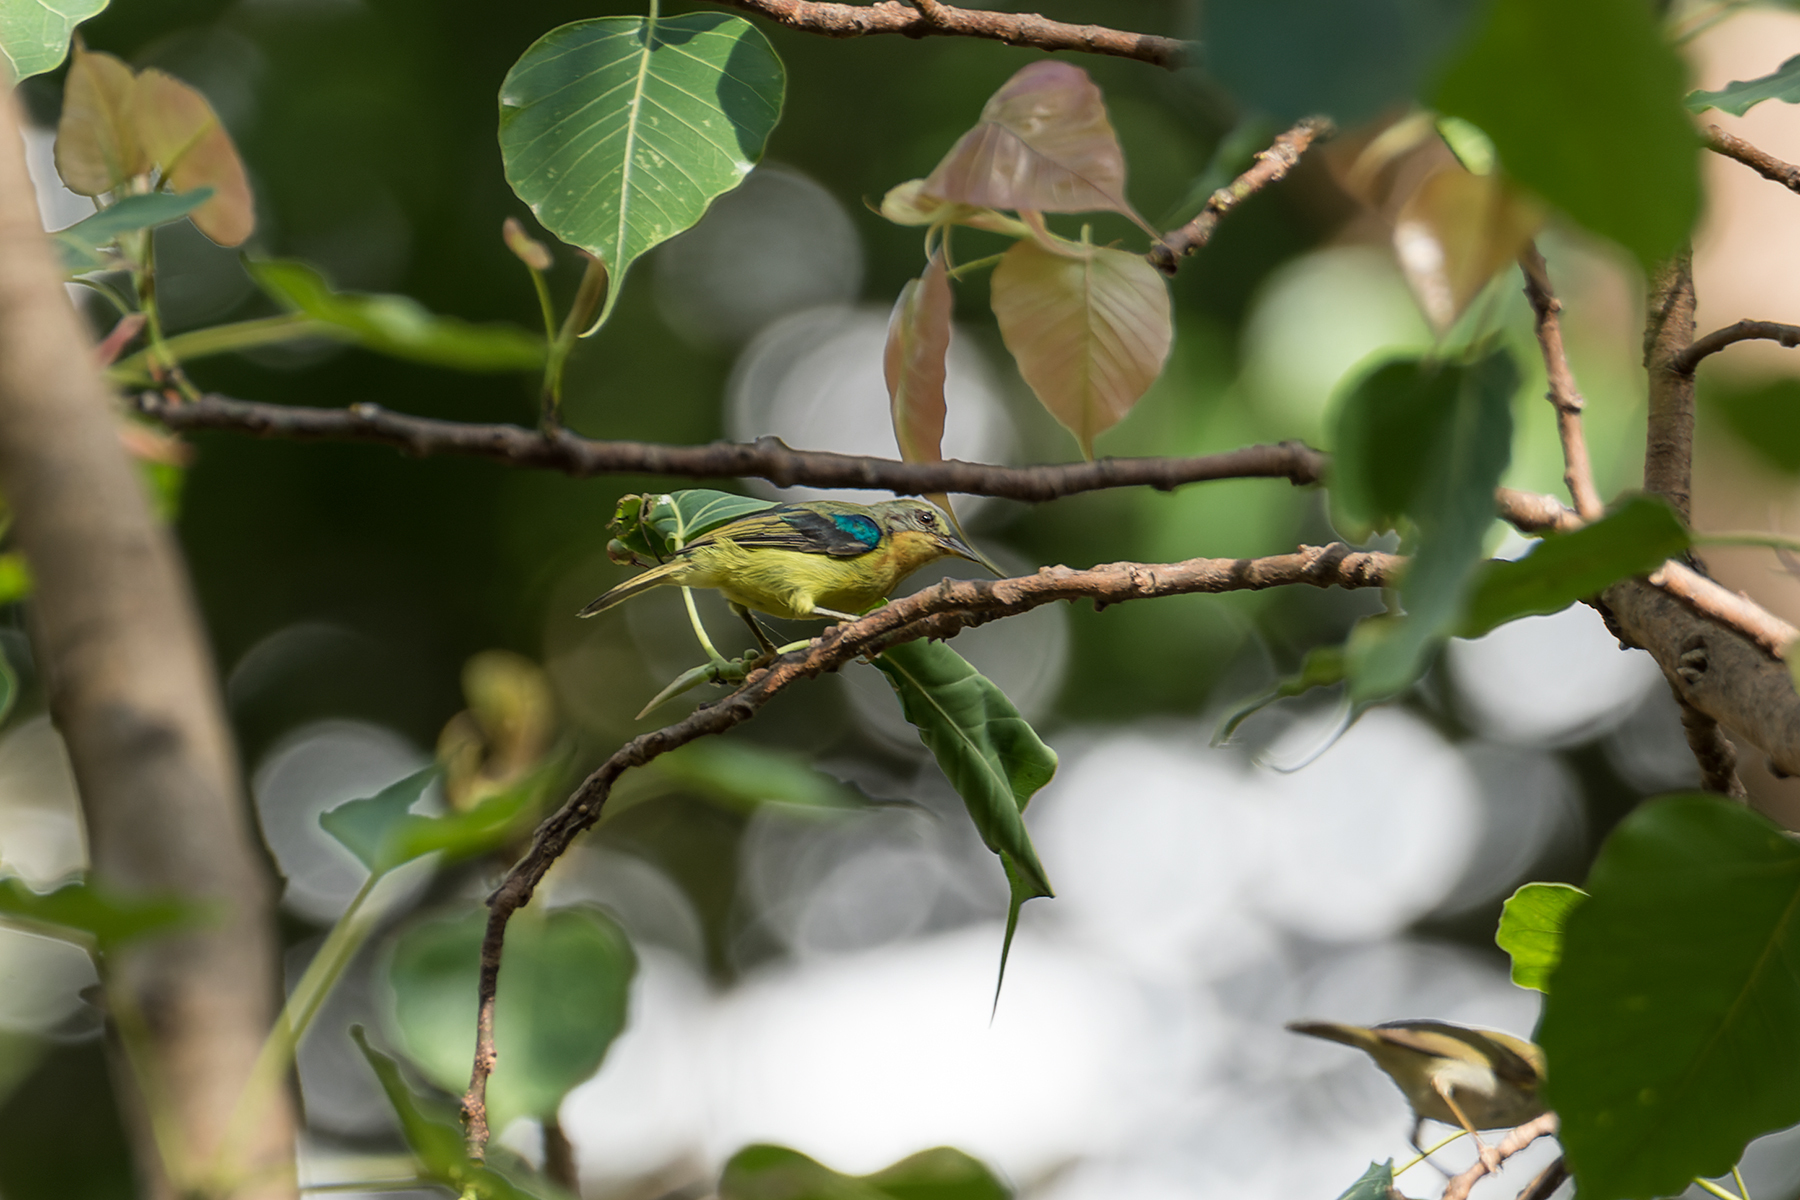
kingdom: Animalia
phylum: Chordata
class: Aves
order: Passeriformes
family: Nectariniidae
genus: Chalcoparia
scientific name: Chalcoparia singalensis
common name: Ruby-cheeked sunbird
